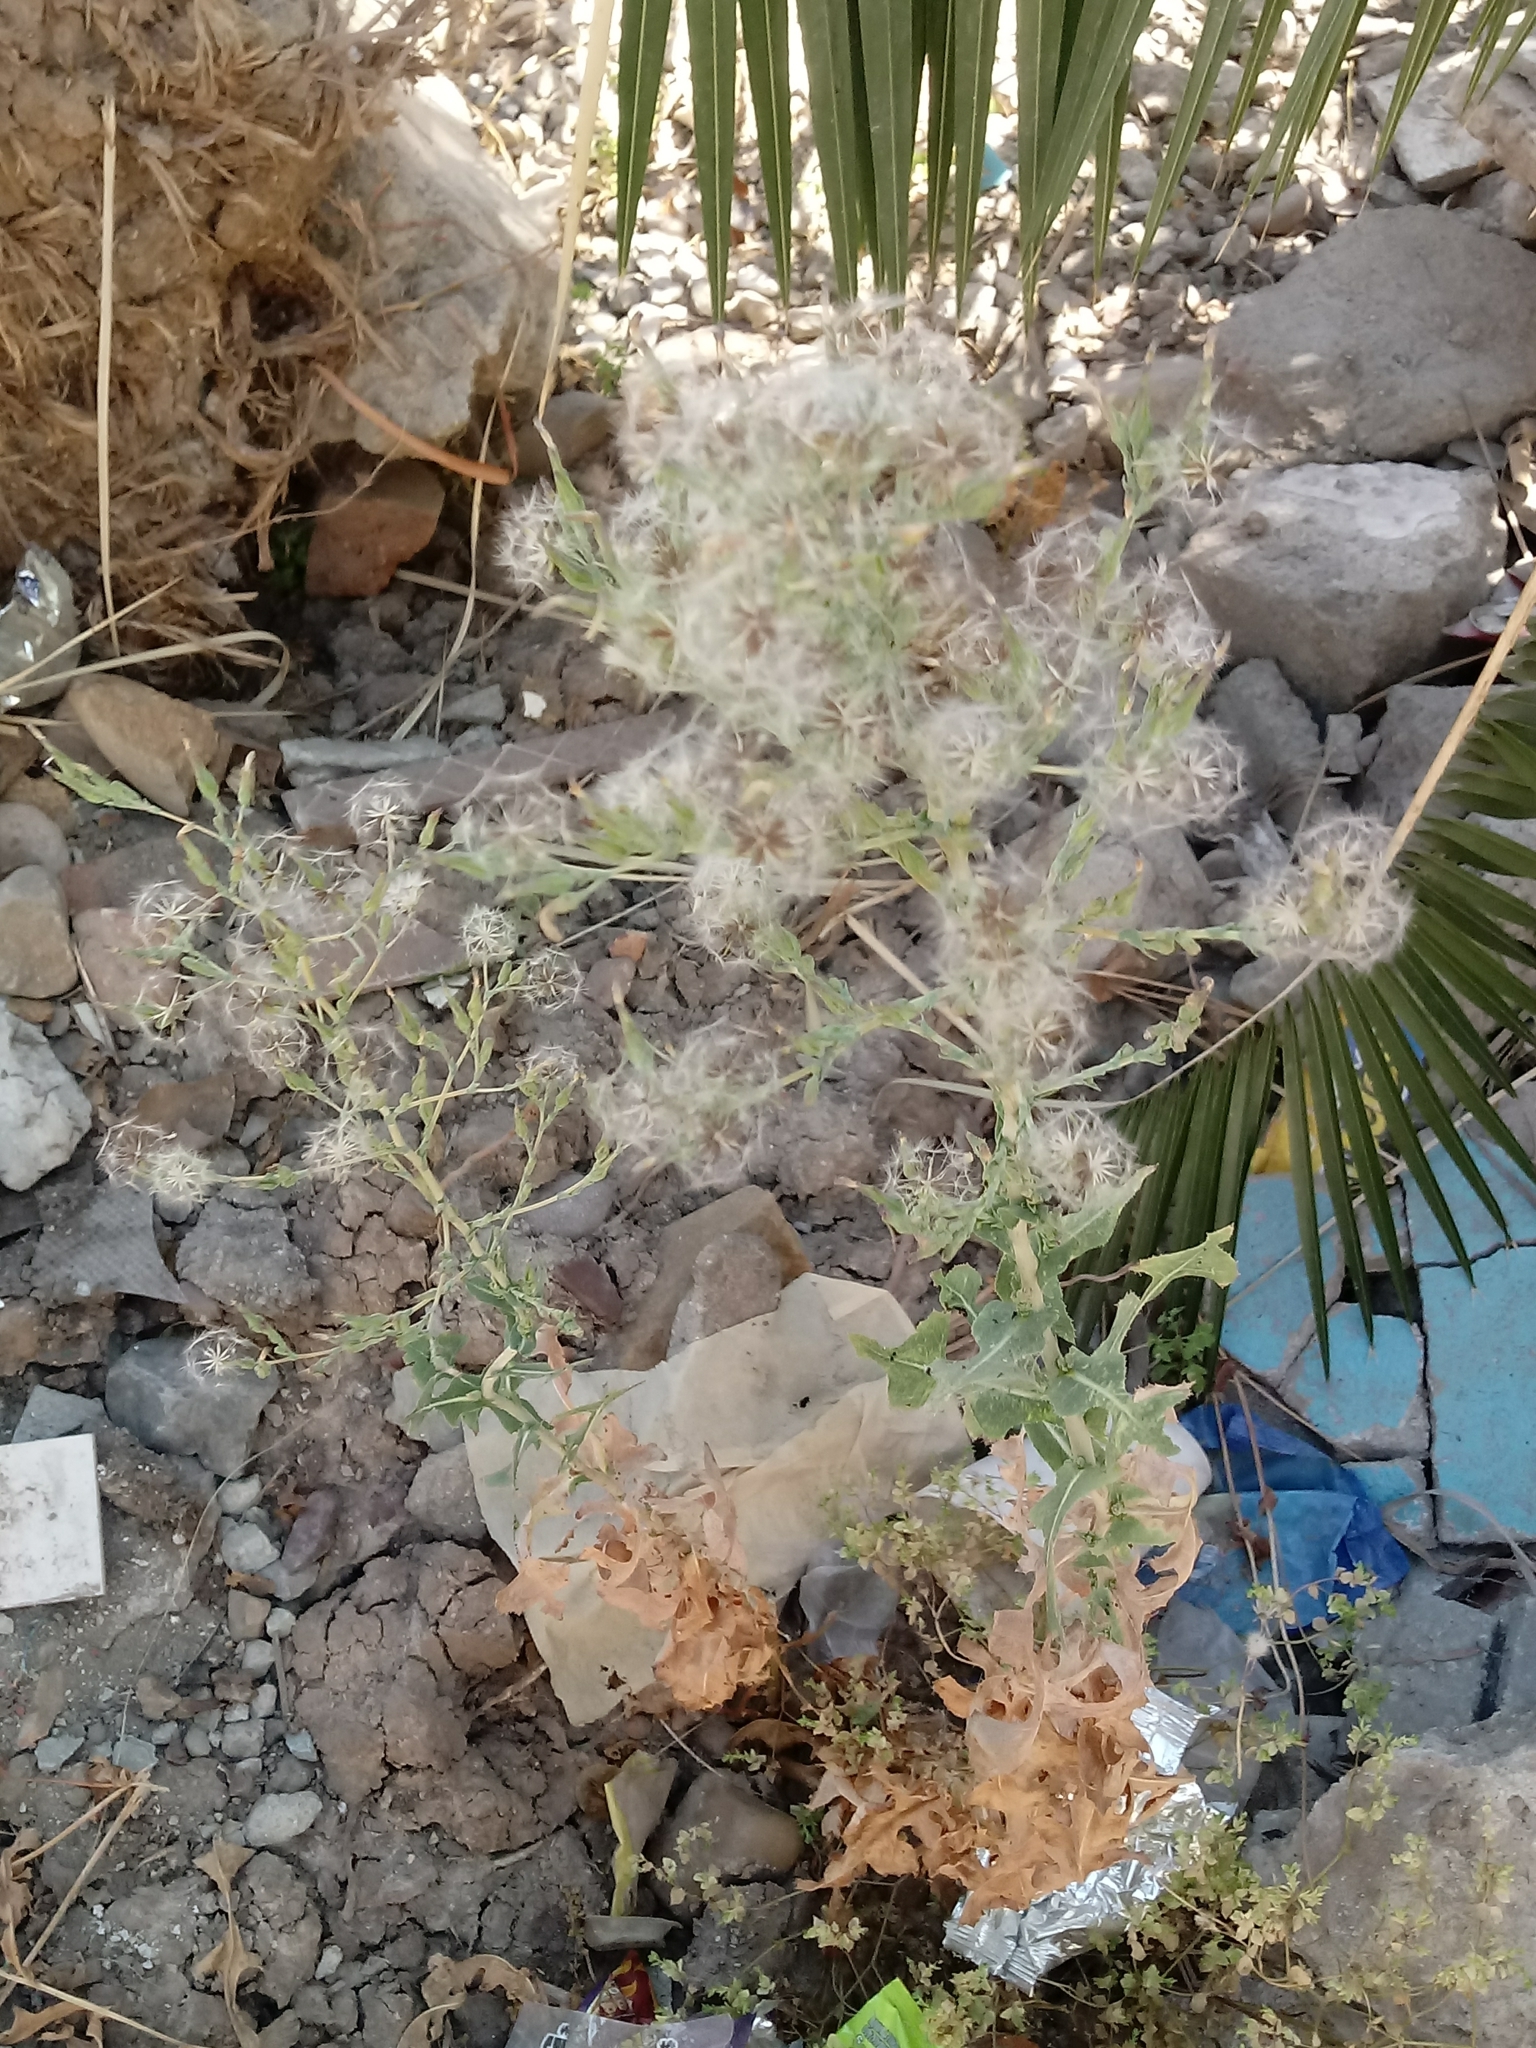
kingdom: Plantae
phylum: Tracheophyta
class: Magnoliopsida
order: Asterales
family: Asteraceae
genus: Lactuca
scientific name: Lactuca serriola
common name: Prickly lettuce
